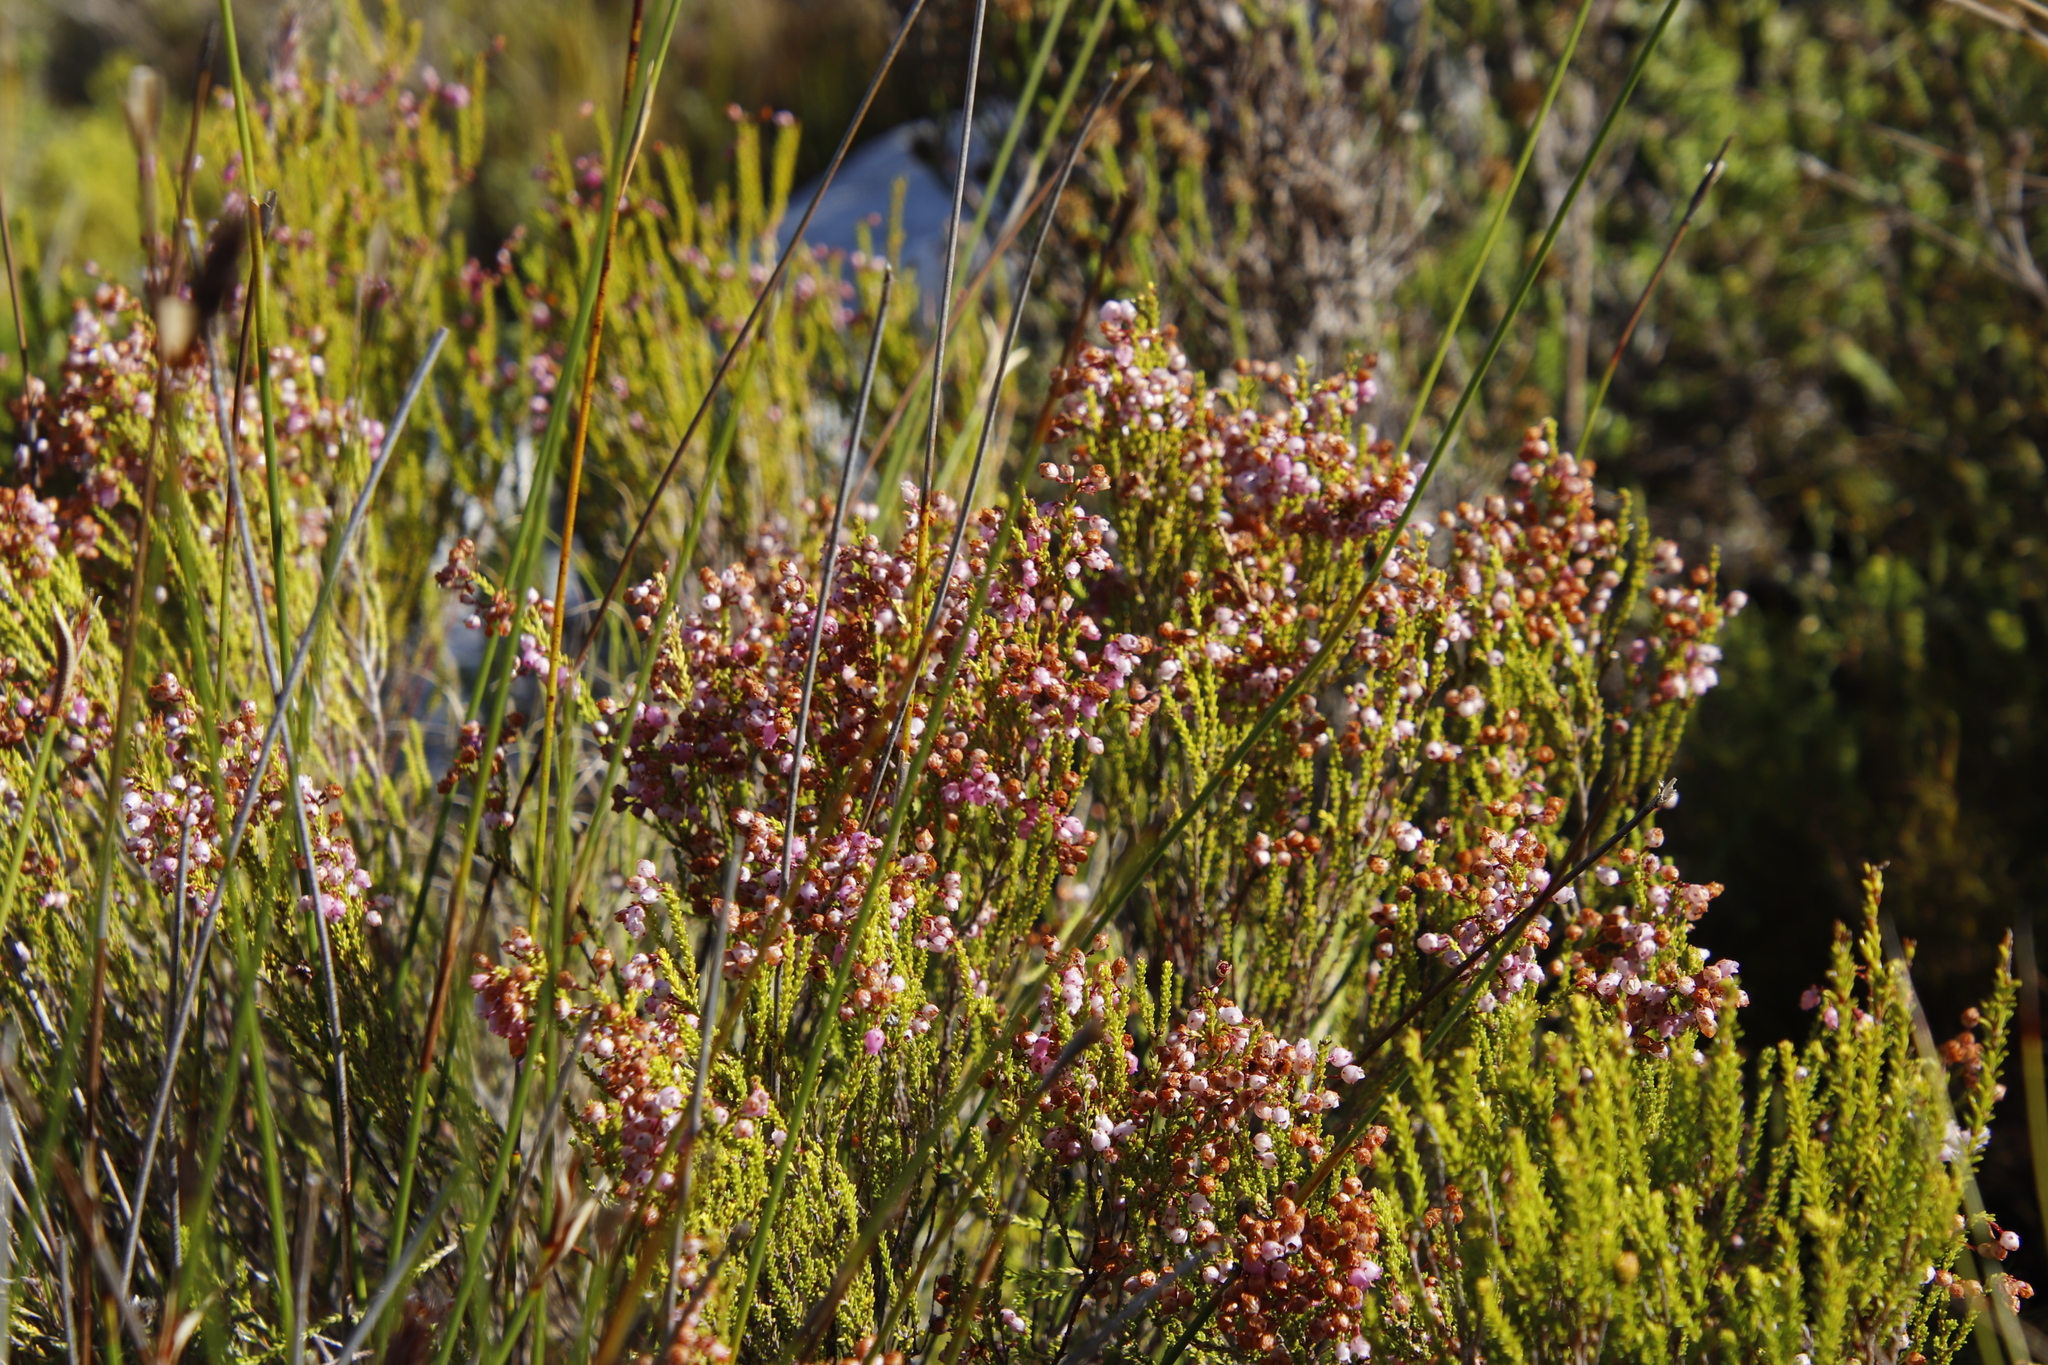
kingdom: Plantae
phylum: Tracheophyta
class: Magnoliopsida
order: Ericales
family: Ericaceae
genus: Erica
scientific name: Erica ferrea
